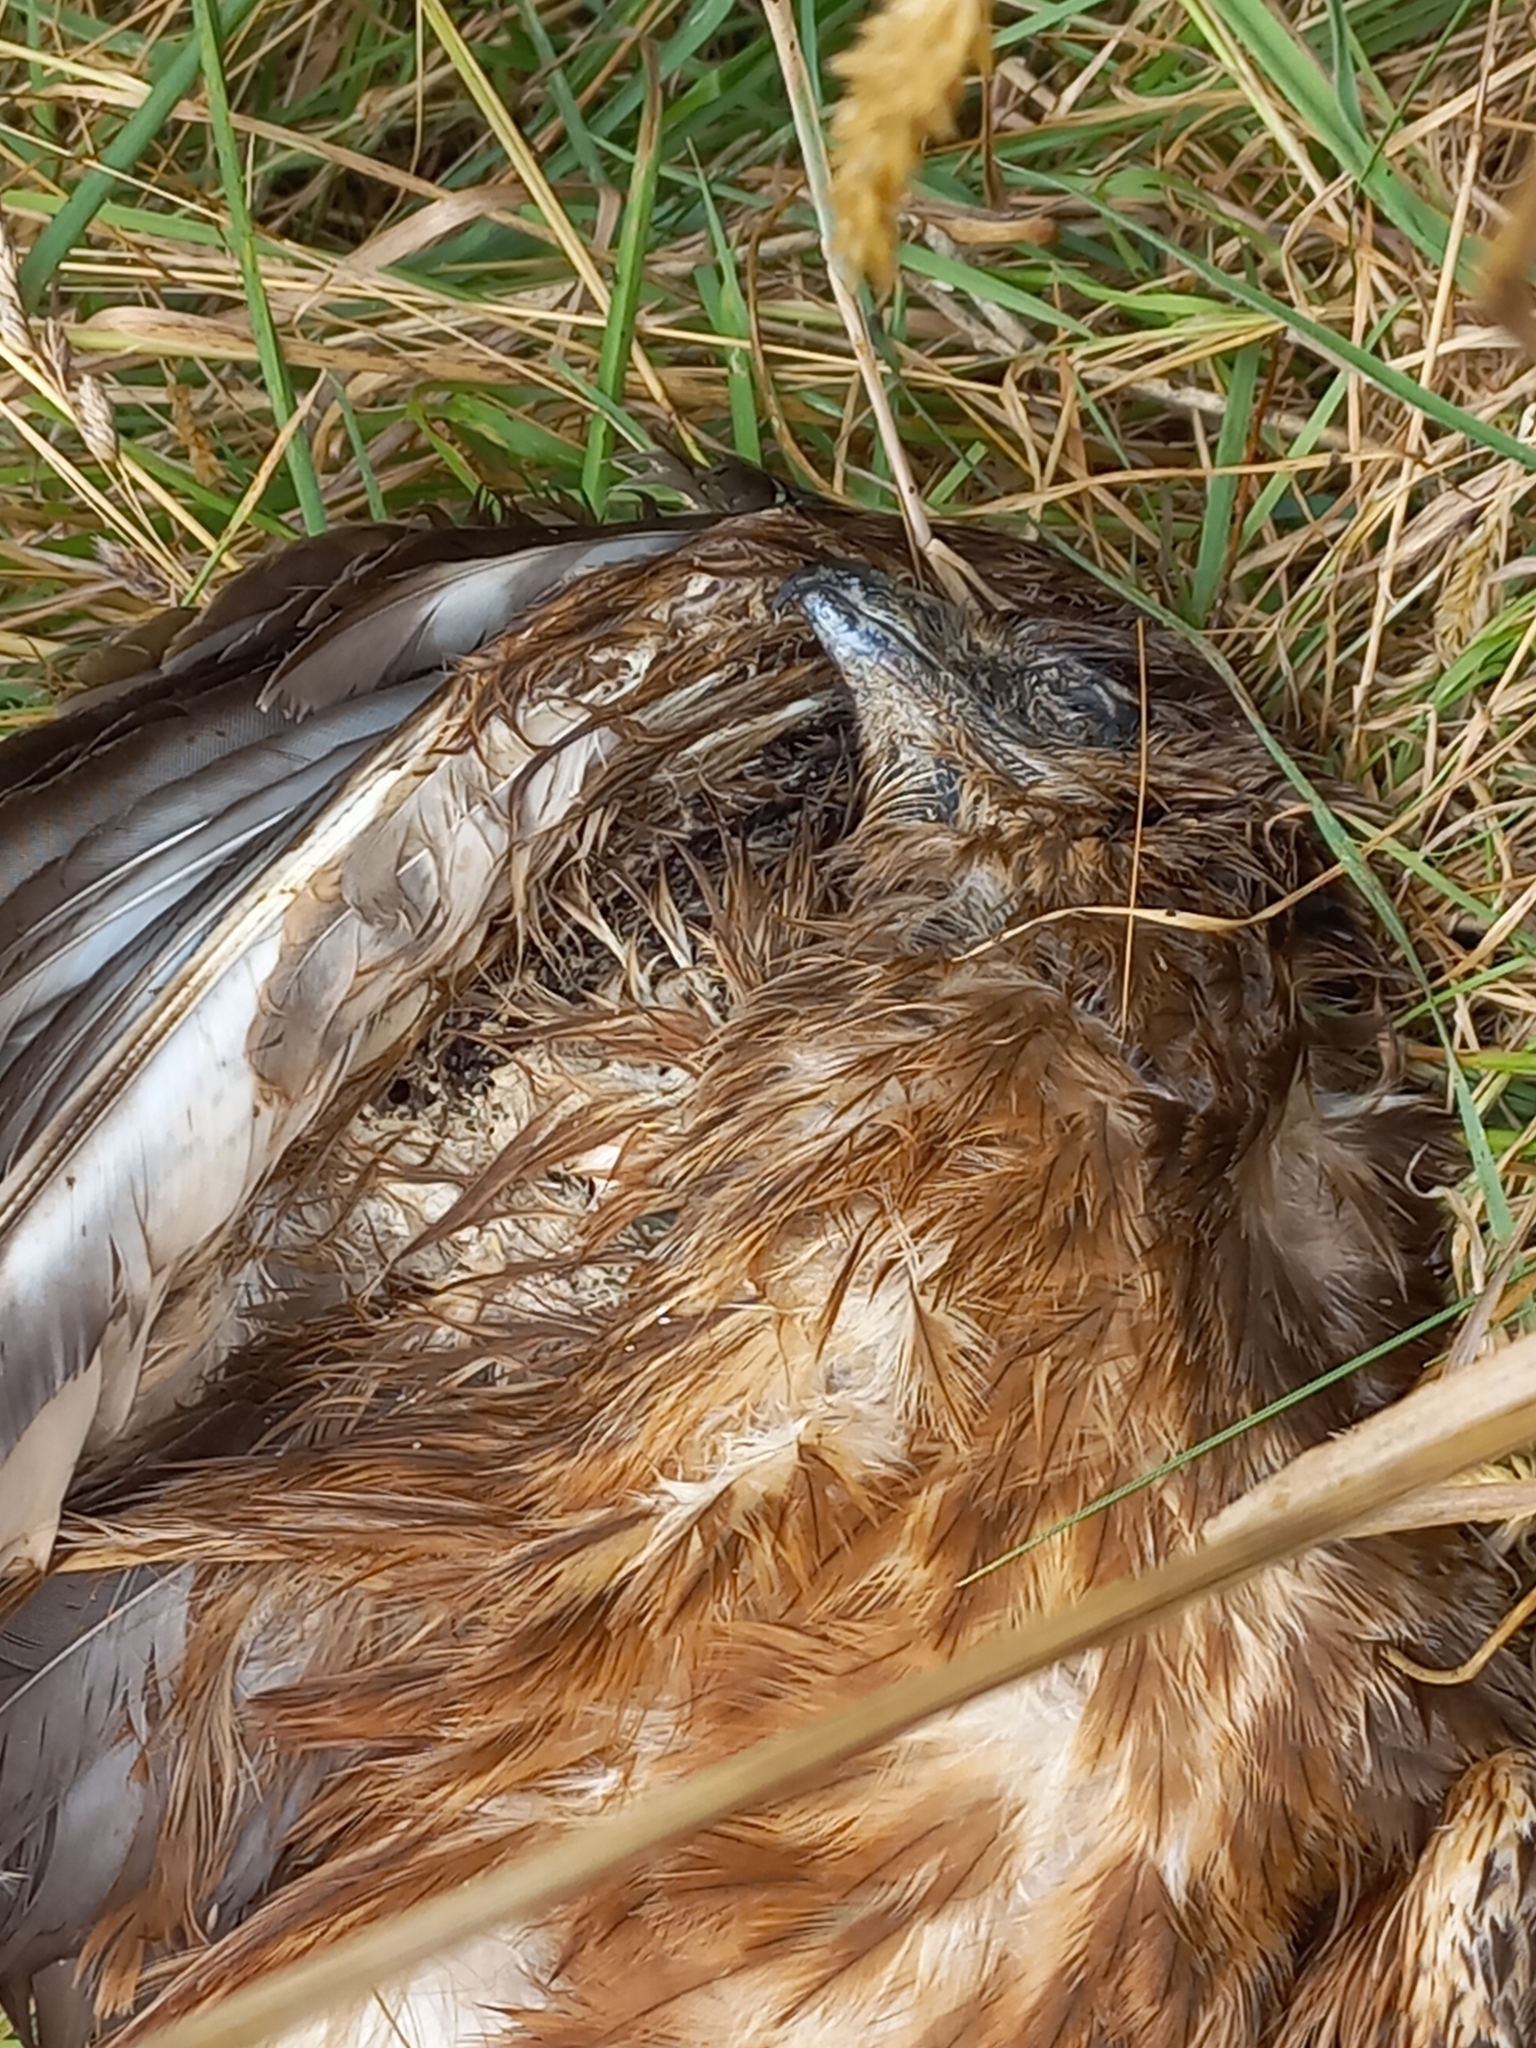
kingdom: Animalia
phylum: Chordata
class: Aves
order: Accipitriformes
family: Accipitridae
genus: Circus
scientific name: Circus approximans
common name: Swamp harrier
